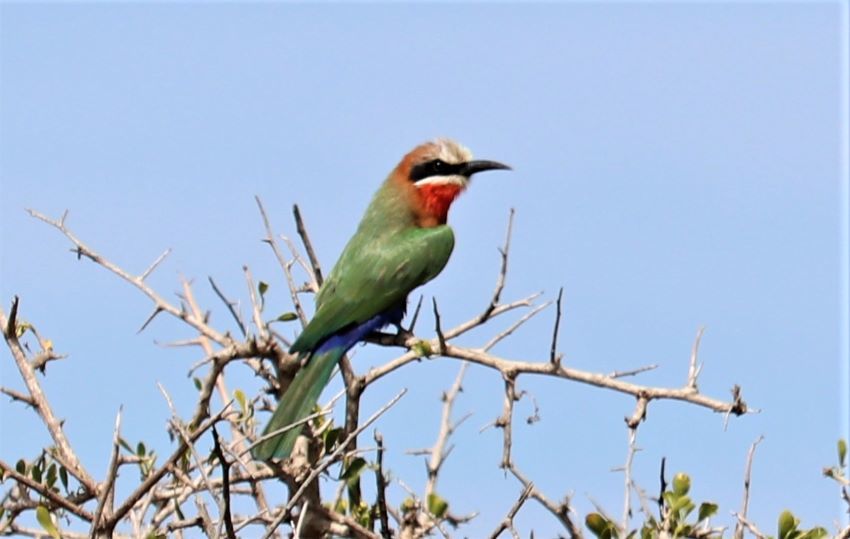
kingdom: Animalia
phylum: Chordata
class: Aves
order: Coraciiformes
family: Meropidae
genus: Merops
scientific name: Merops bullockoides
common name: White-fronted bee-eater
